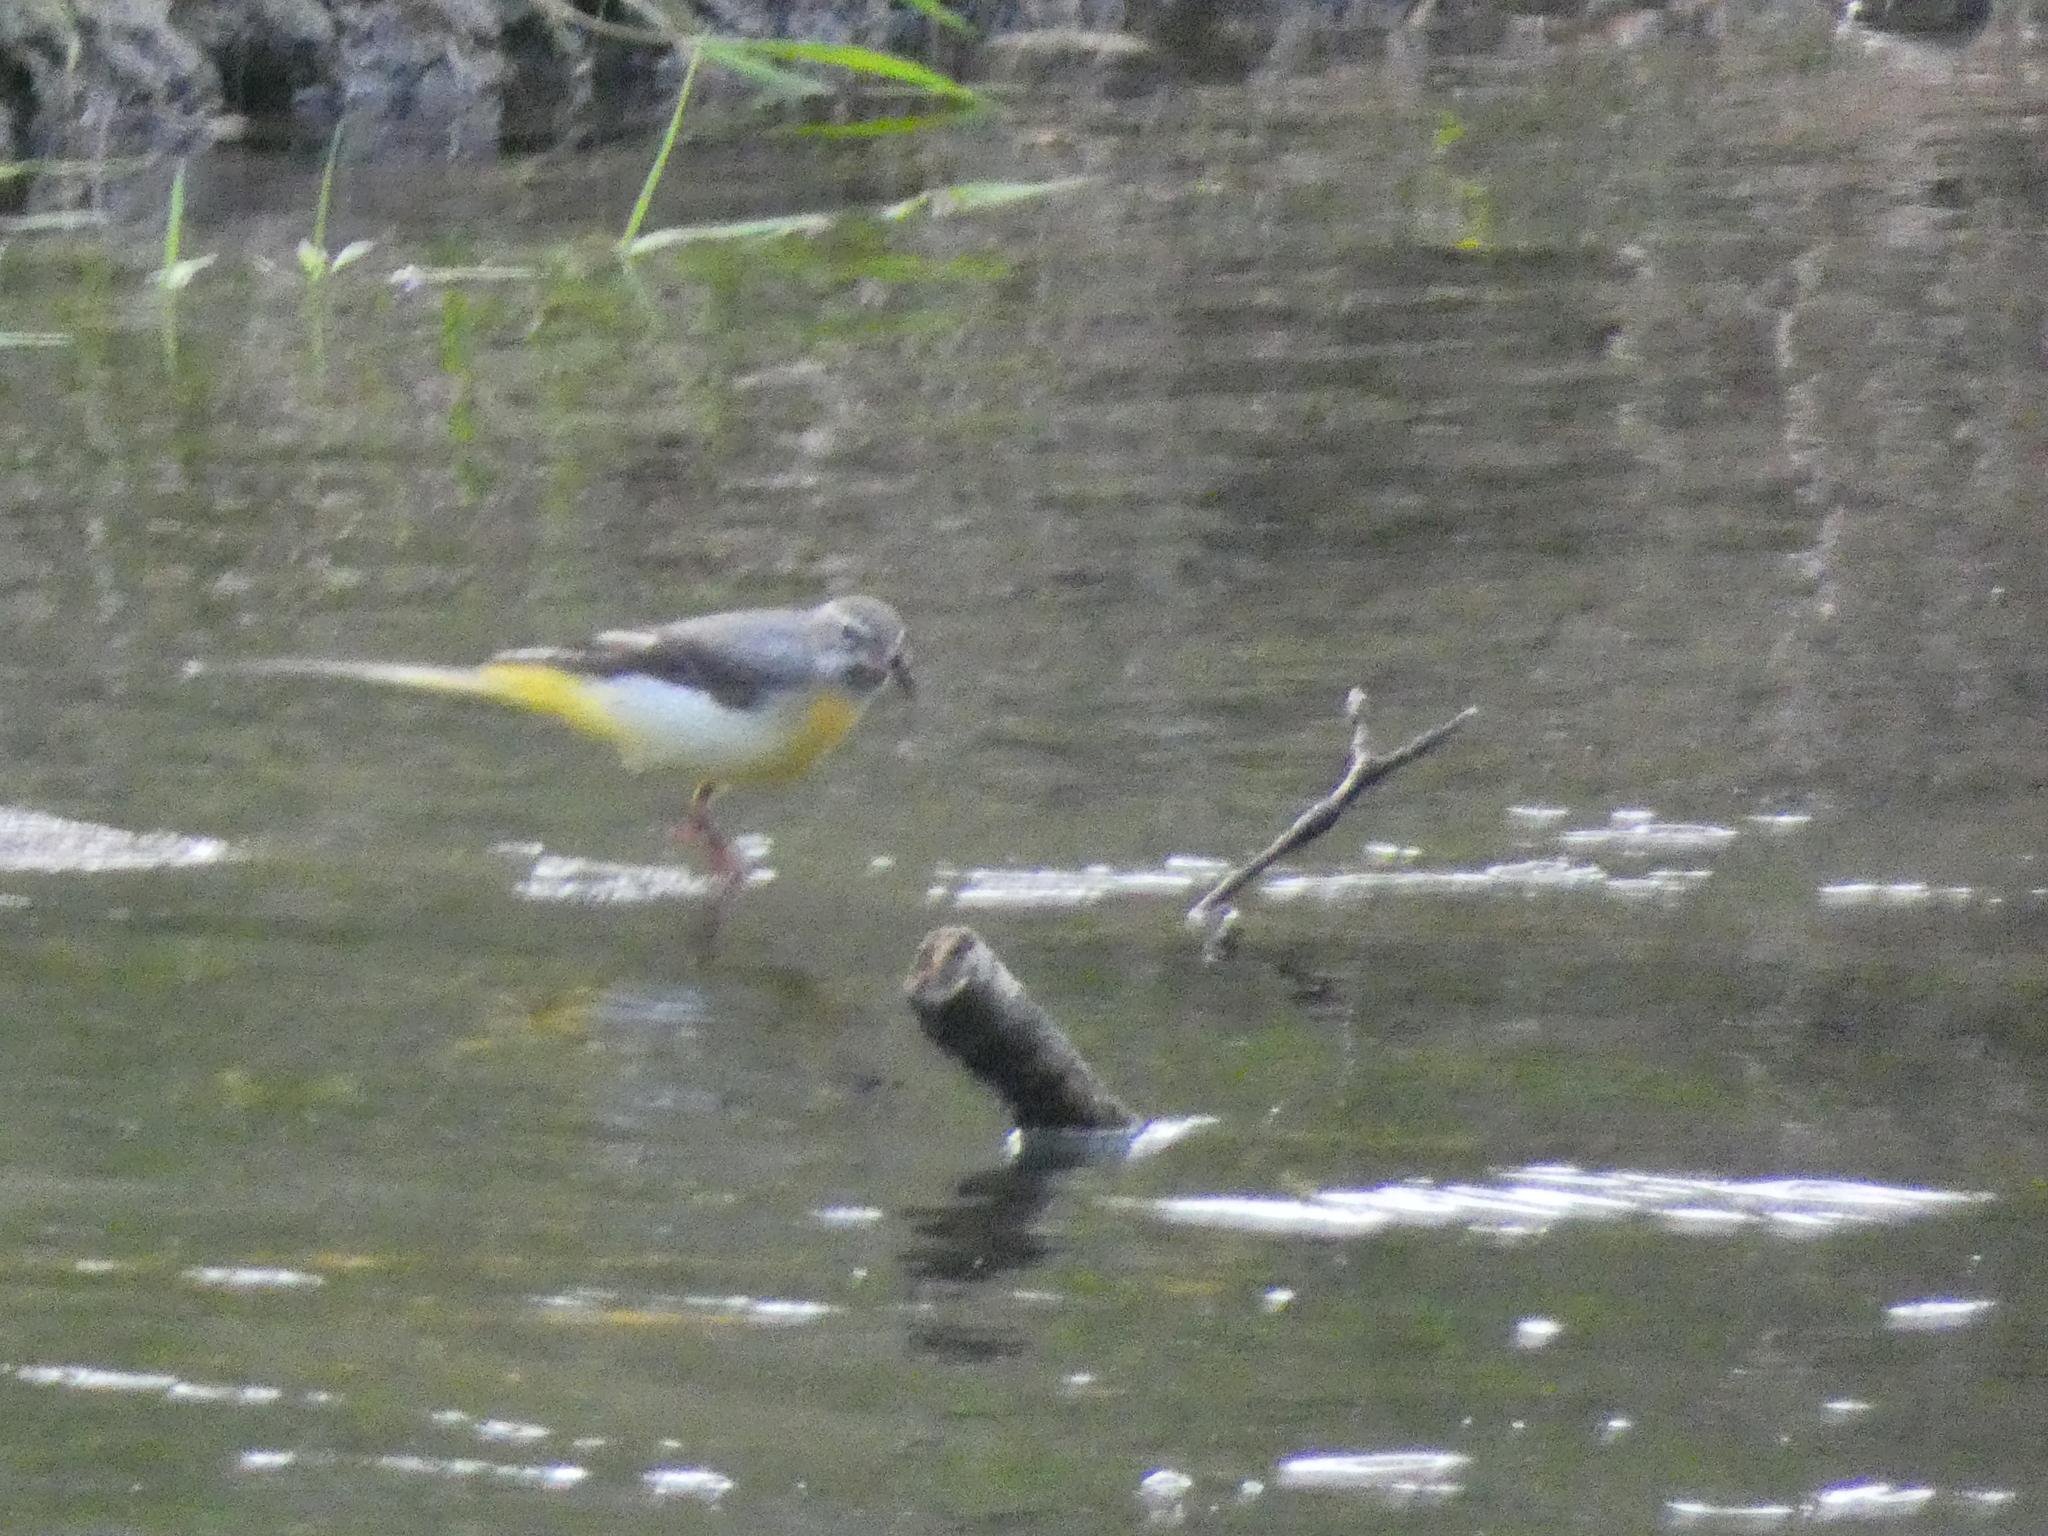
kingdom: Animalia
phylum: Chordata
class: Aves
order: Passeriformes
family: Motacillidae
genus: Motacilla
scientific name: Motacilla cinerea
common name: Grey wagtail
